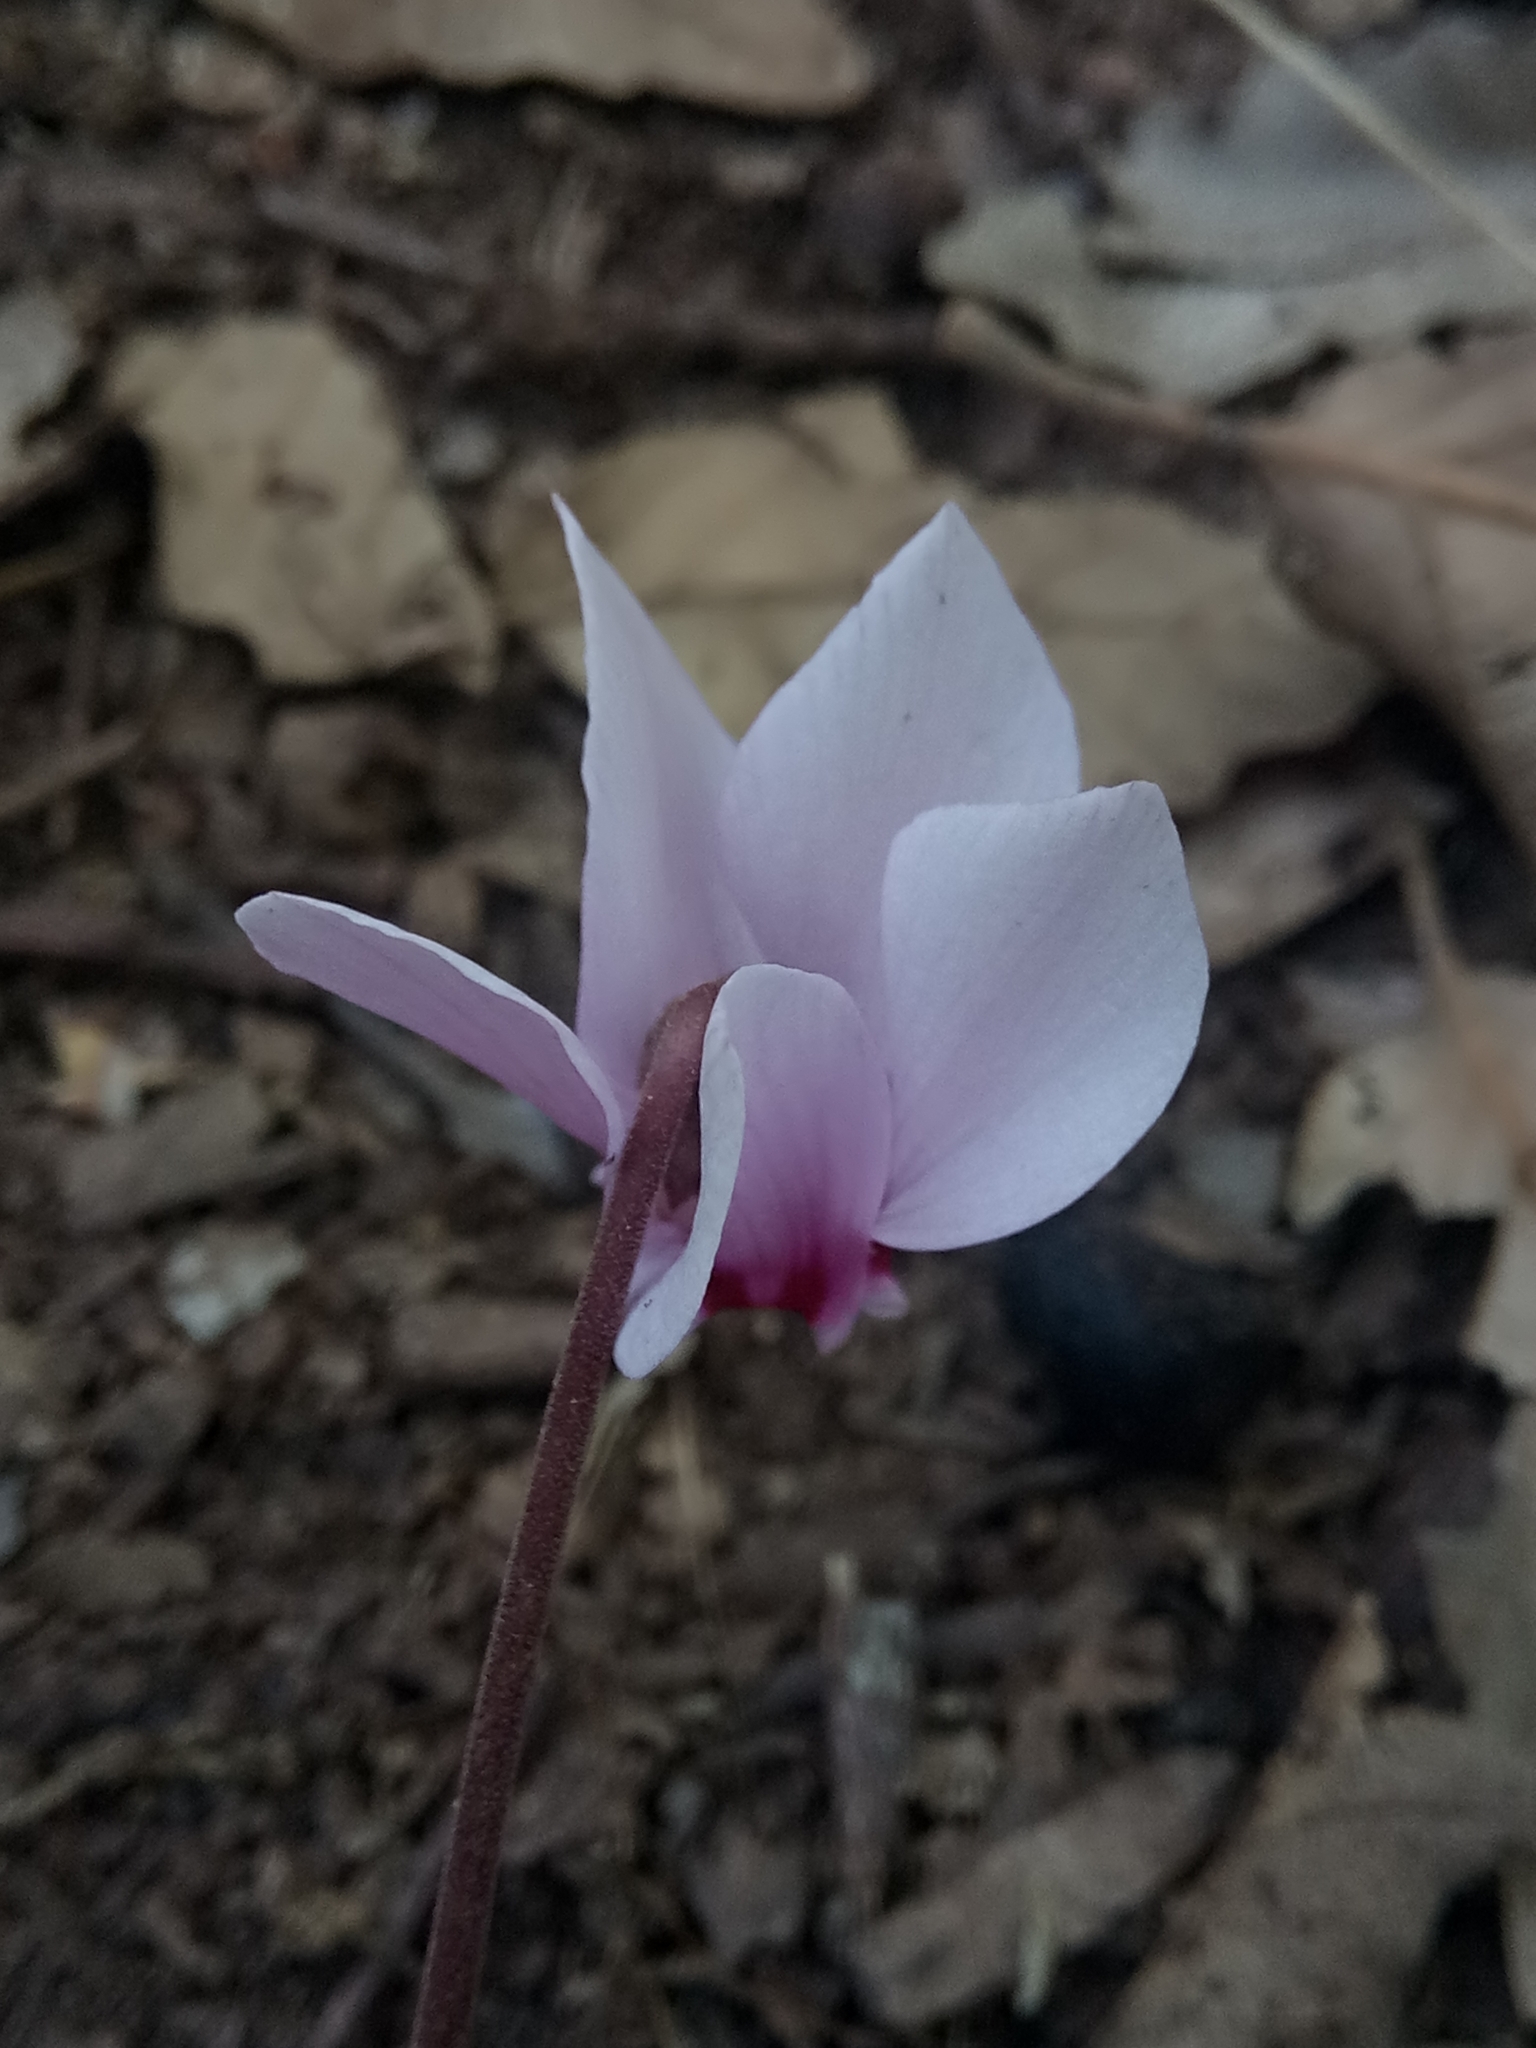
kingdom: Plantae
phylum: Tracheophyta
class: Magnoliopsida
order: Ericales
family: Primulaceae
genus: Cyclamen
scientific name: Cyclamen africanum
